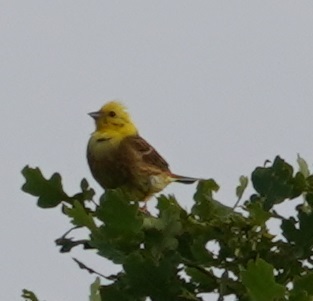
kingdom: Animalia
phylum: Chordata
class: Aves
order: Passeriformes
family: Emberizidae
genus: Emberiza
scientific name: Emberiza citrinella
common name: Yellowhammer
